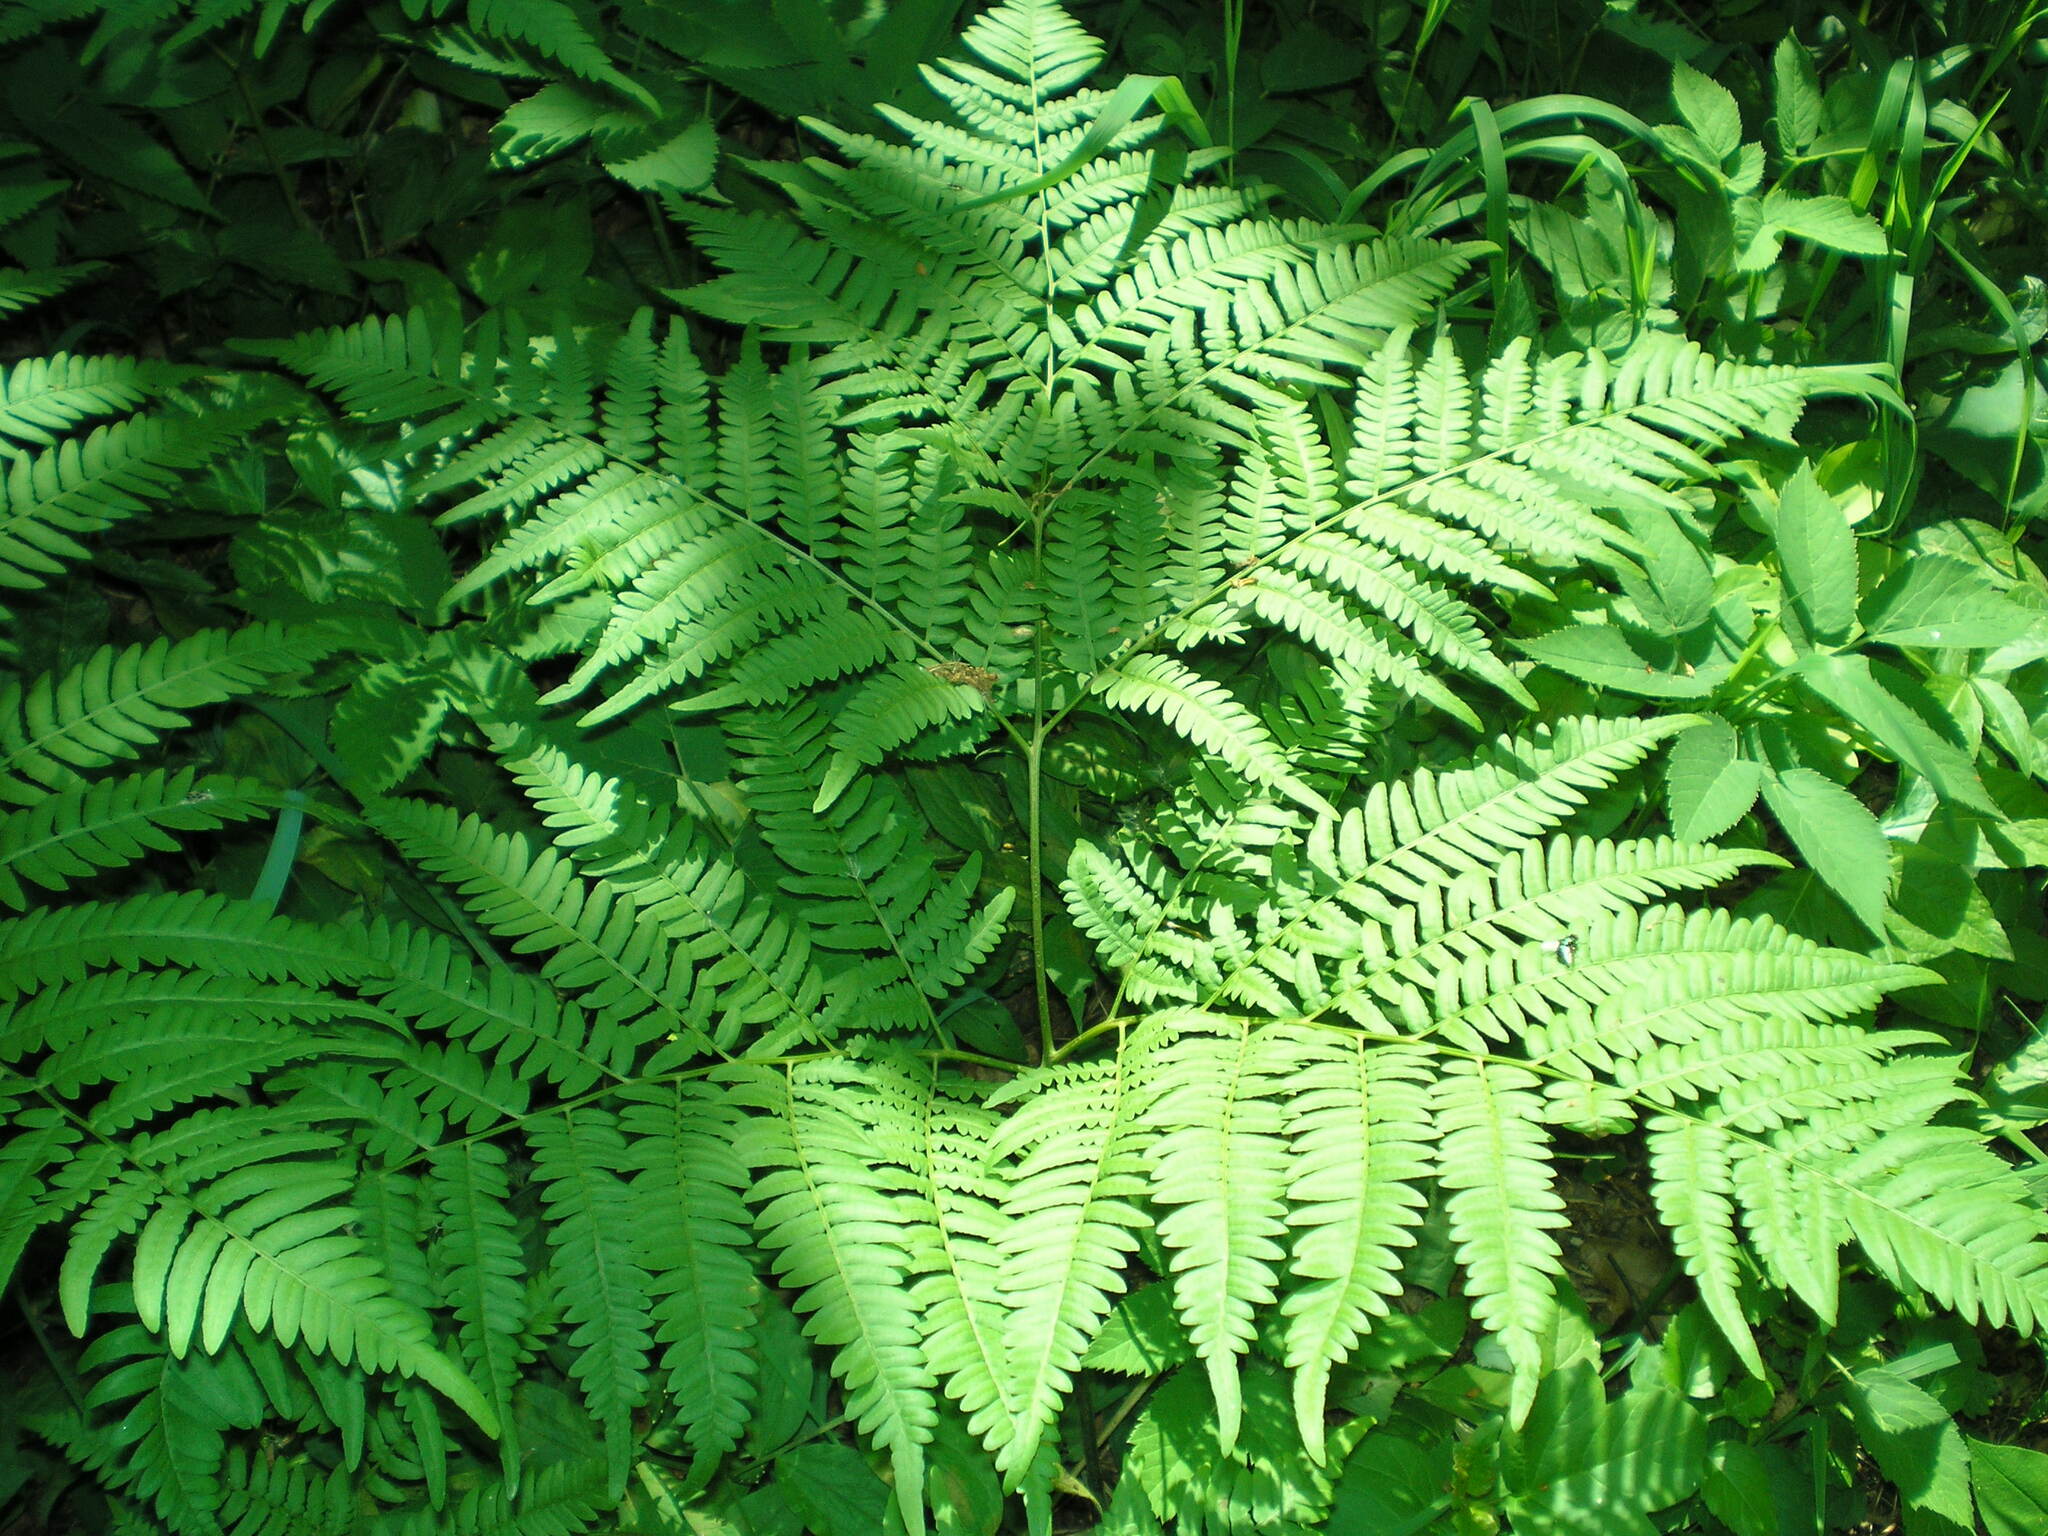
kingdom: Plantae
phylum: Tracheophyta
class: Polypodiopsida
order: Polypodiales
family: Dennstaedtiaceae
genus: Pteridium
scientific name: Pteridium aquilinum
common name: Bracken
